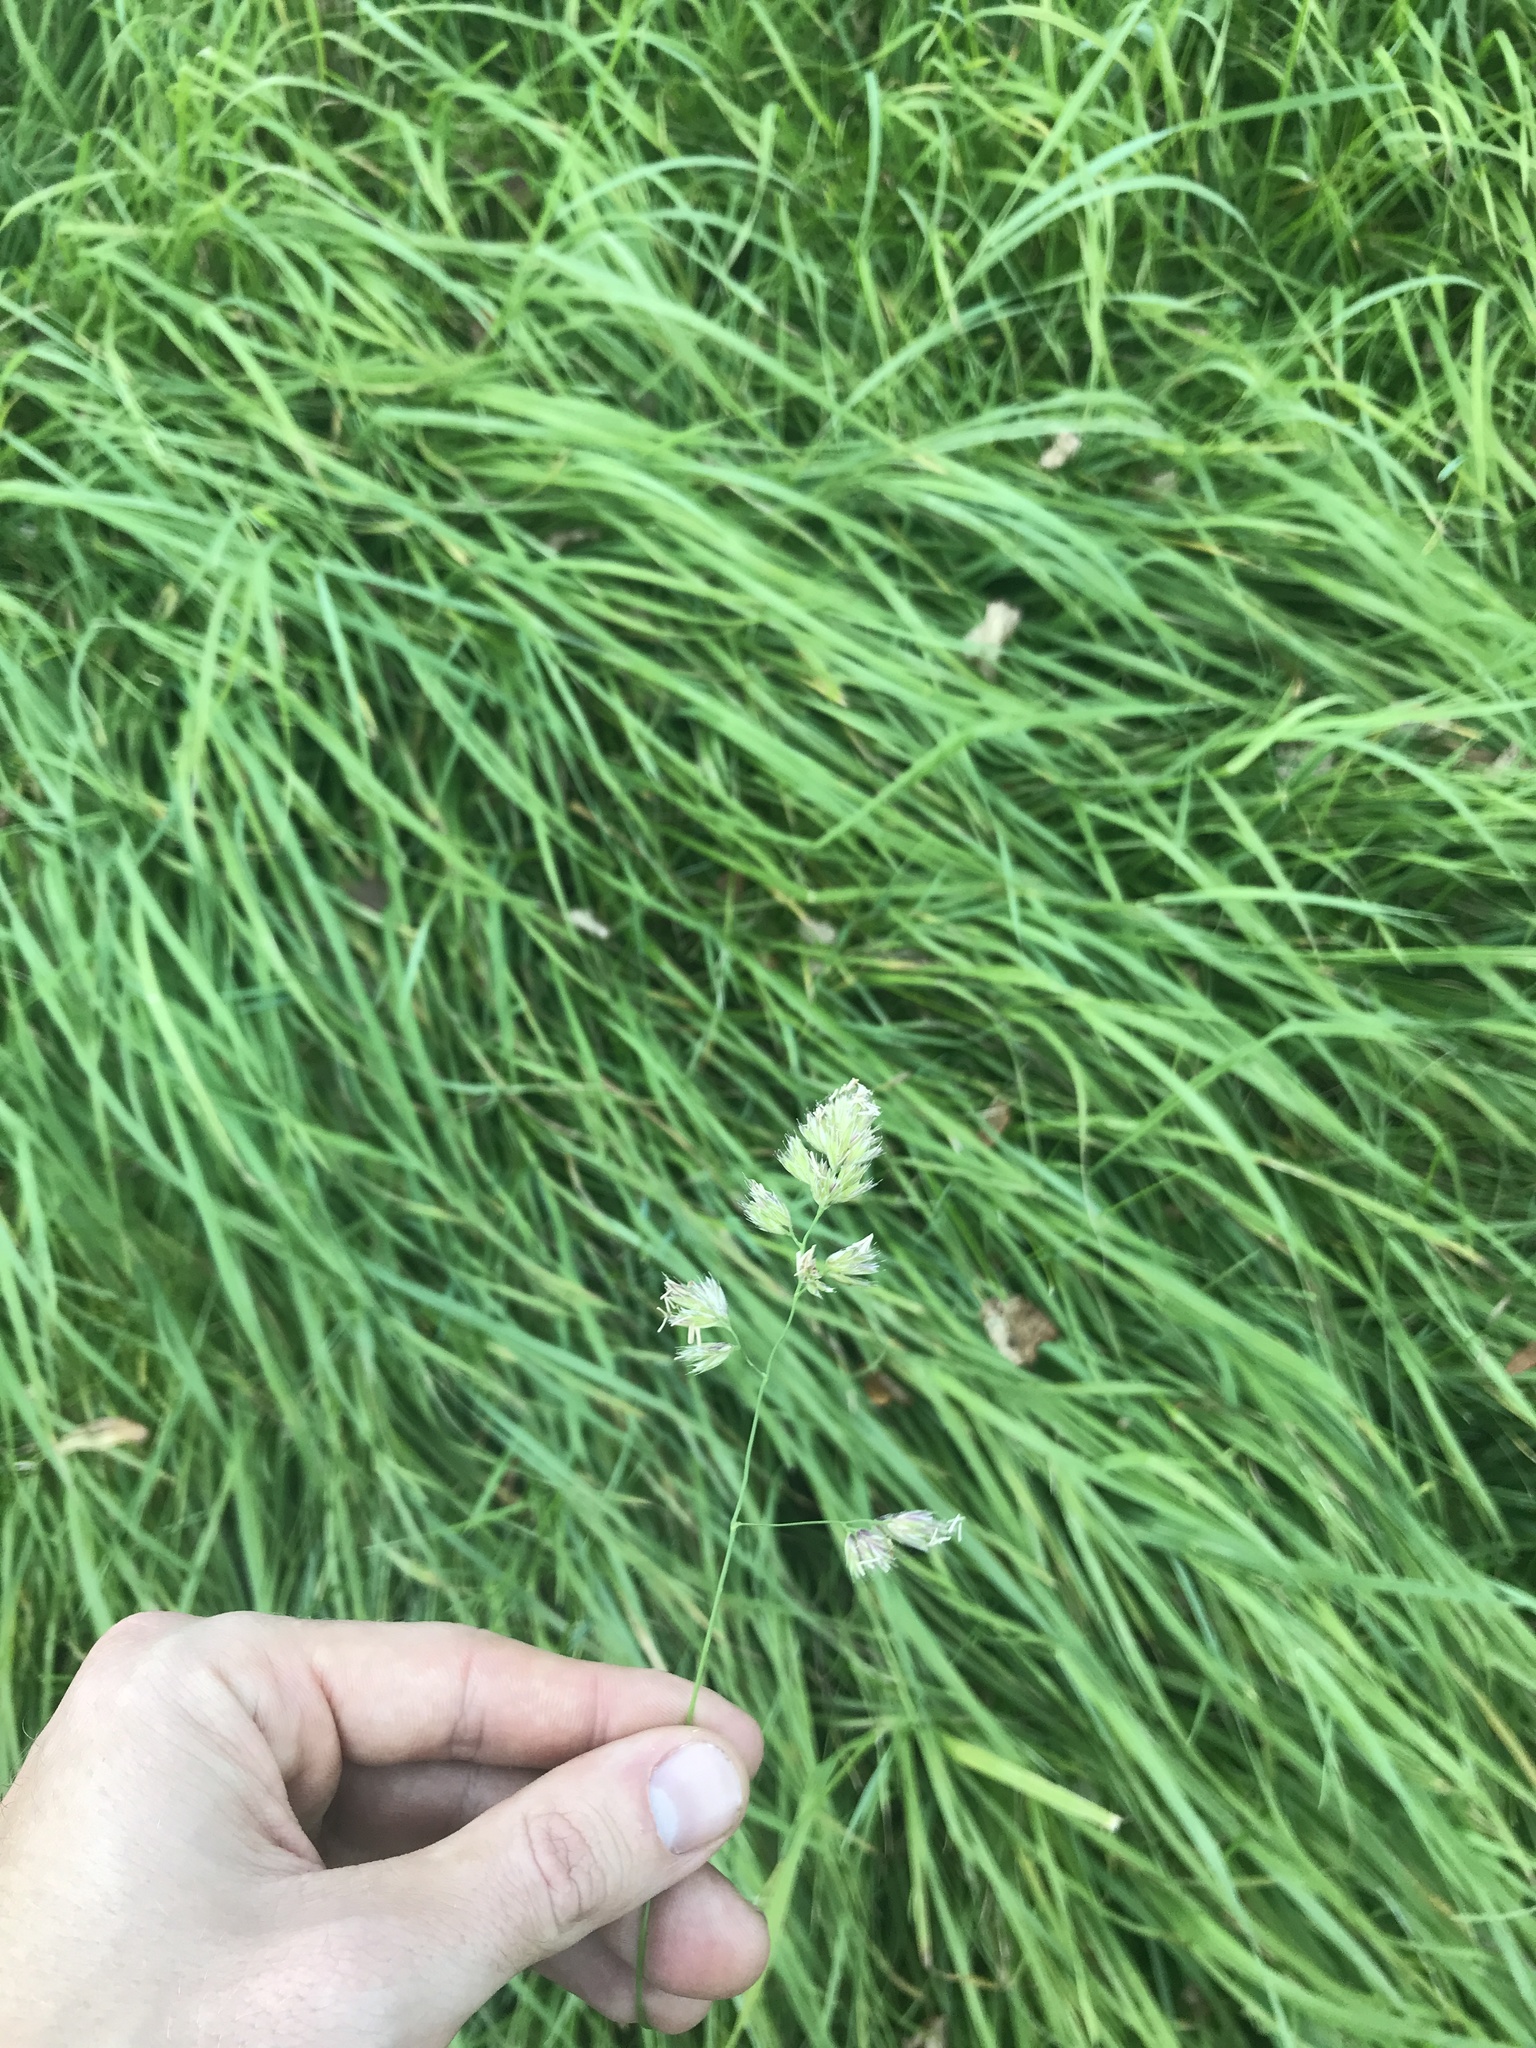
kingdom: Plantae
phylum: Tracheophyta
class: Liliopsida
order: Poales
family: Poaceae
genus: Dactylis
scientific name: Dactylis glomerata
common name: Orchardgrass
